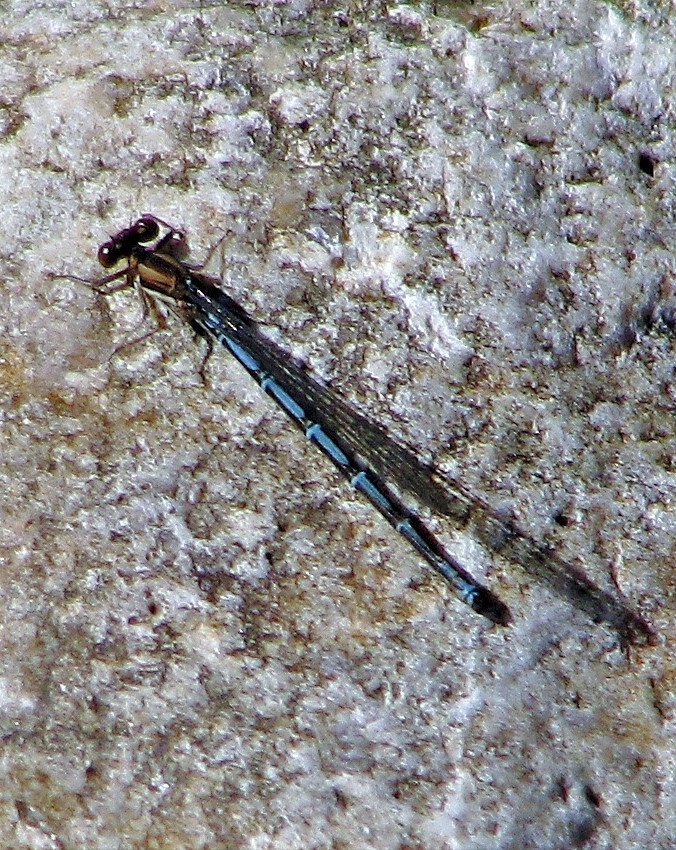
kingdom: Animalia
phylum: Arthropoda
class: Insecta
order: Odonata
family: Coenagrionidae
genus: Argia
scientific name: Argia joergenseni
